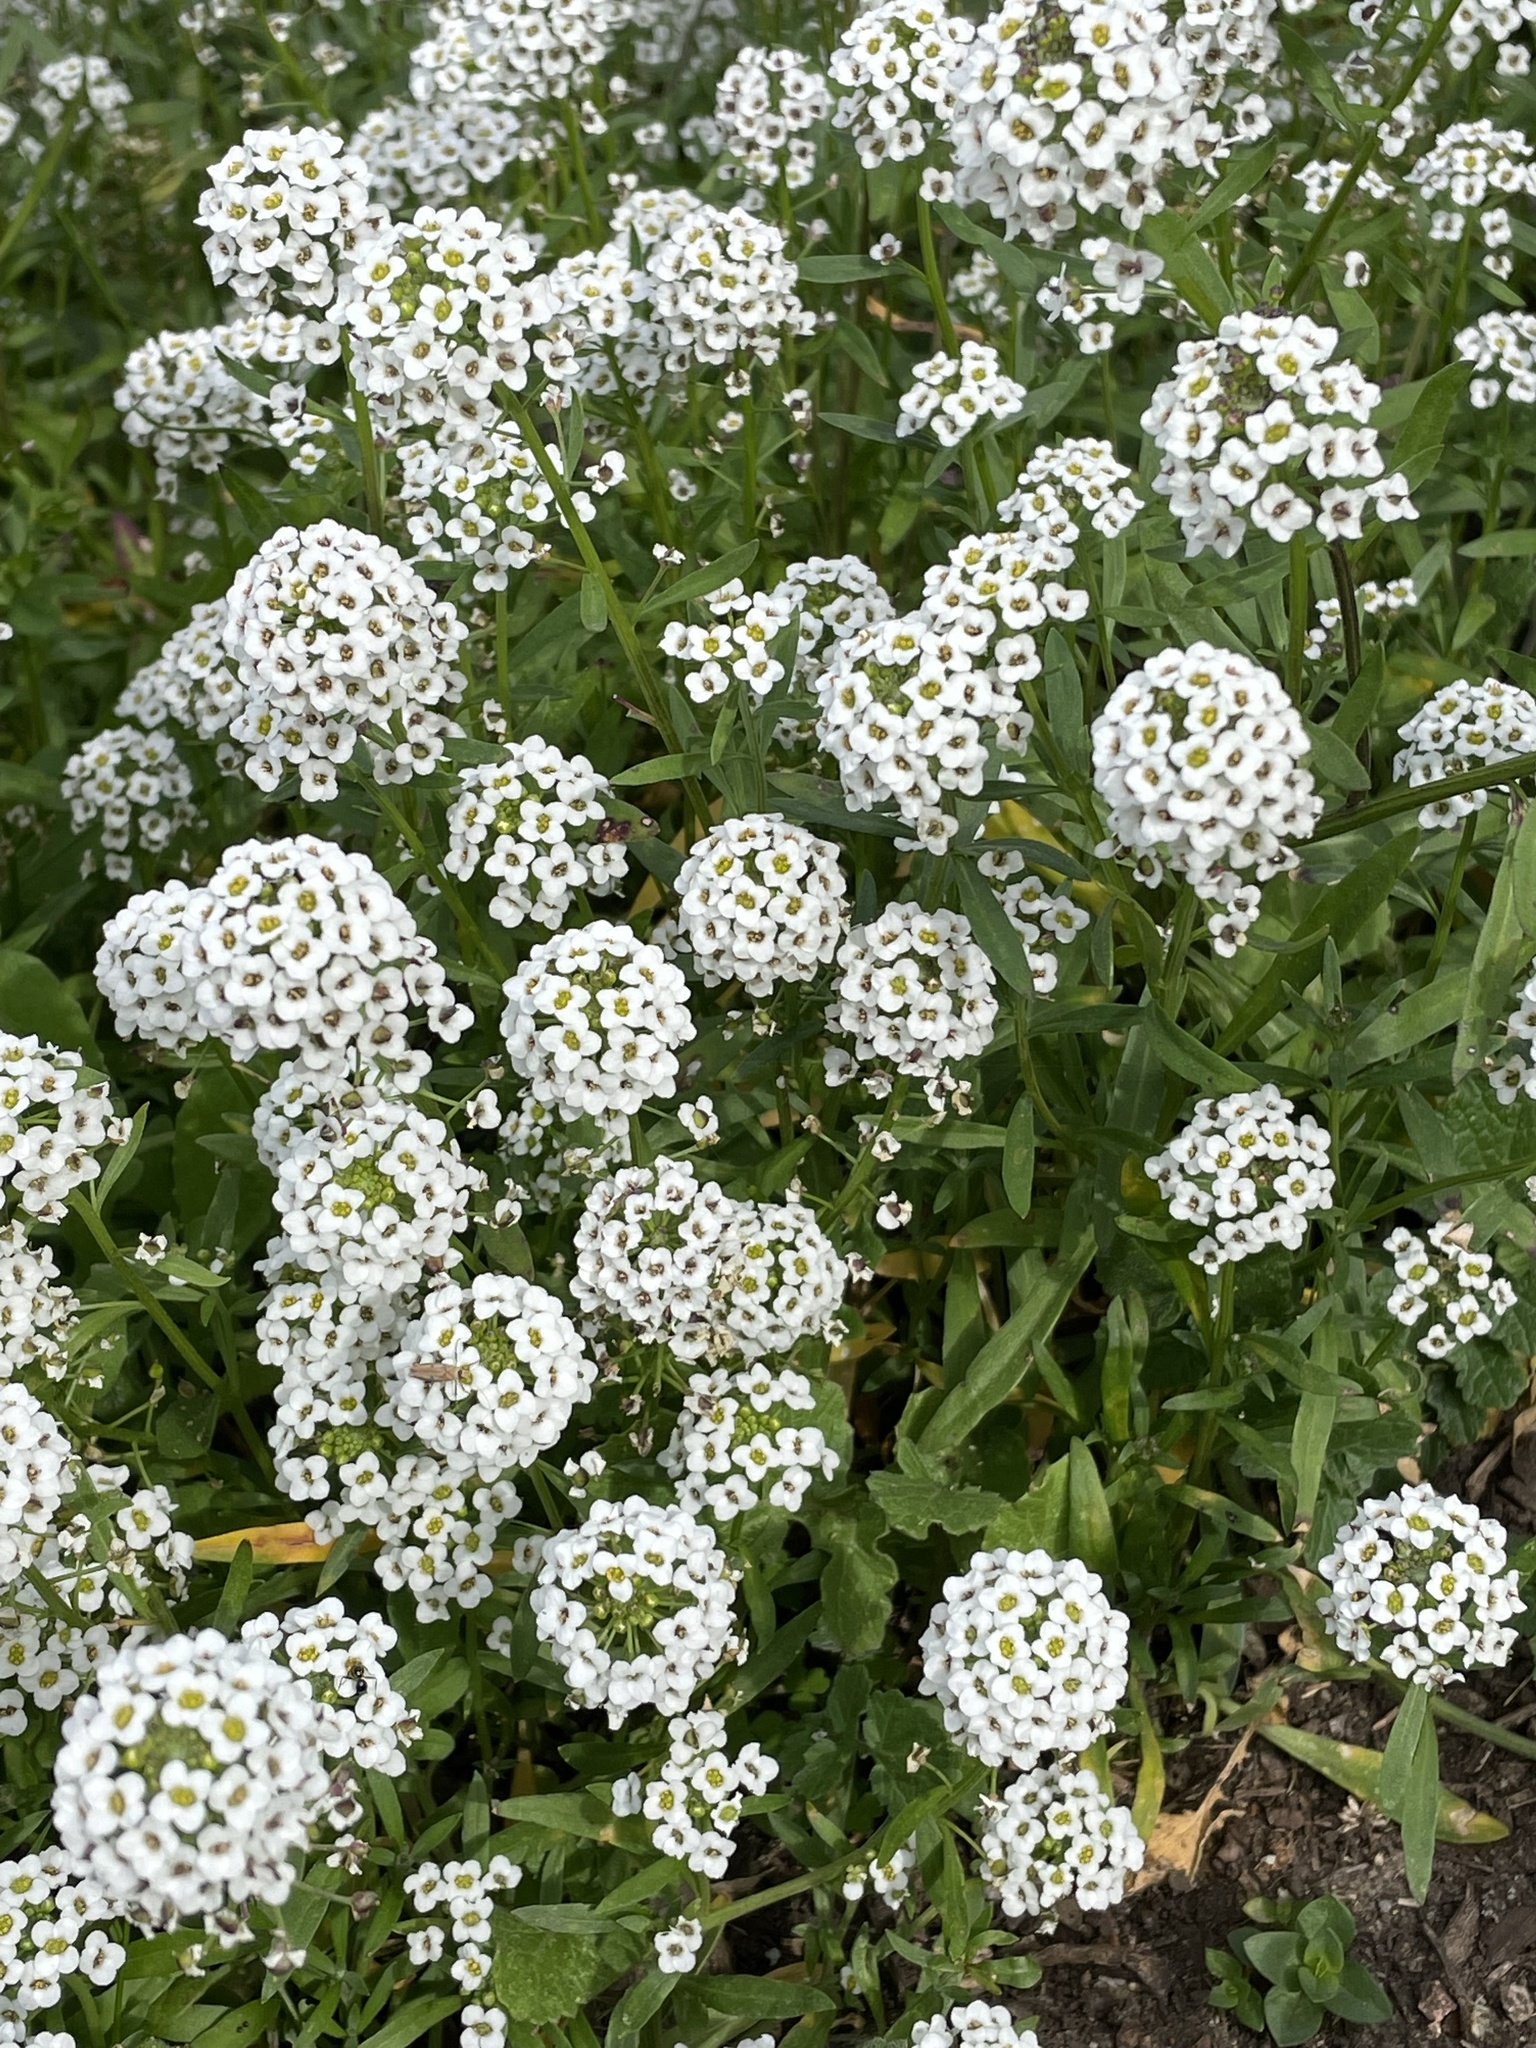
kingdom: Plantae
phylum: Tracheophyta
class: Magnoliopsida
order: Brassicales
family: Brassicaceae
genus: Lobularia
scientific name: Lobularia maritima
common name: Sweet alison
